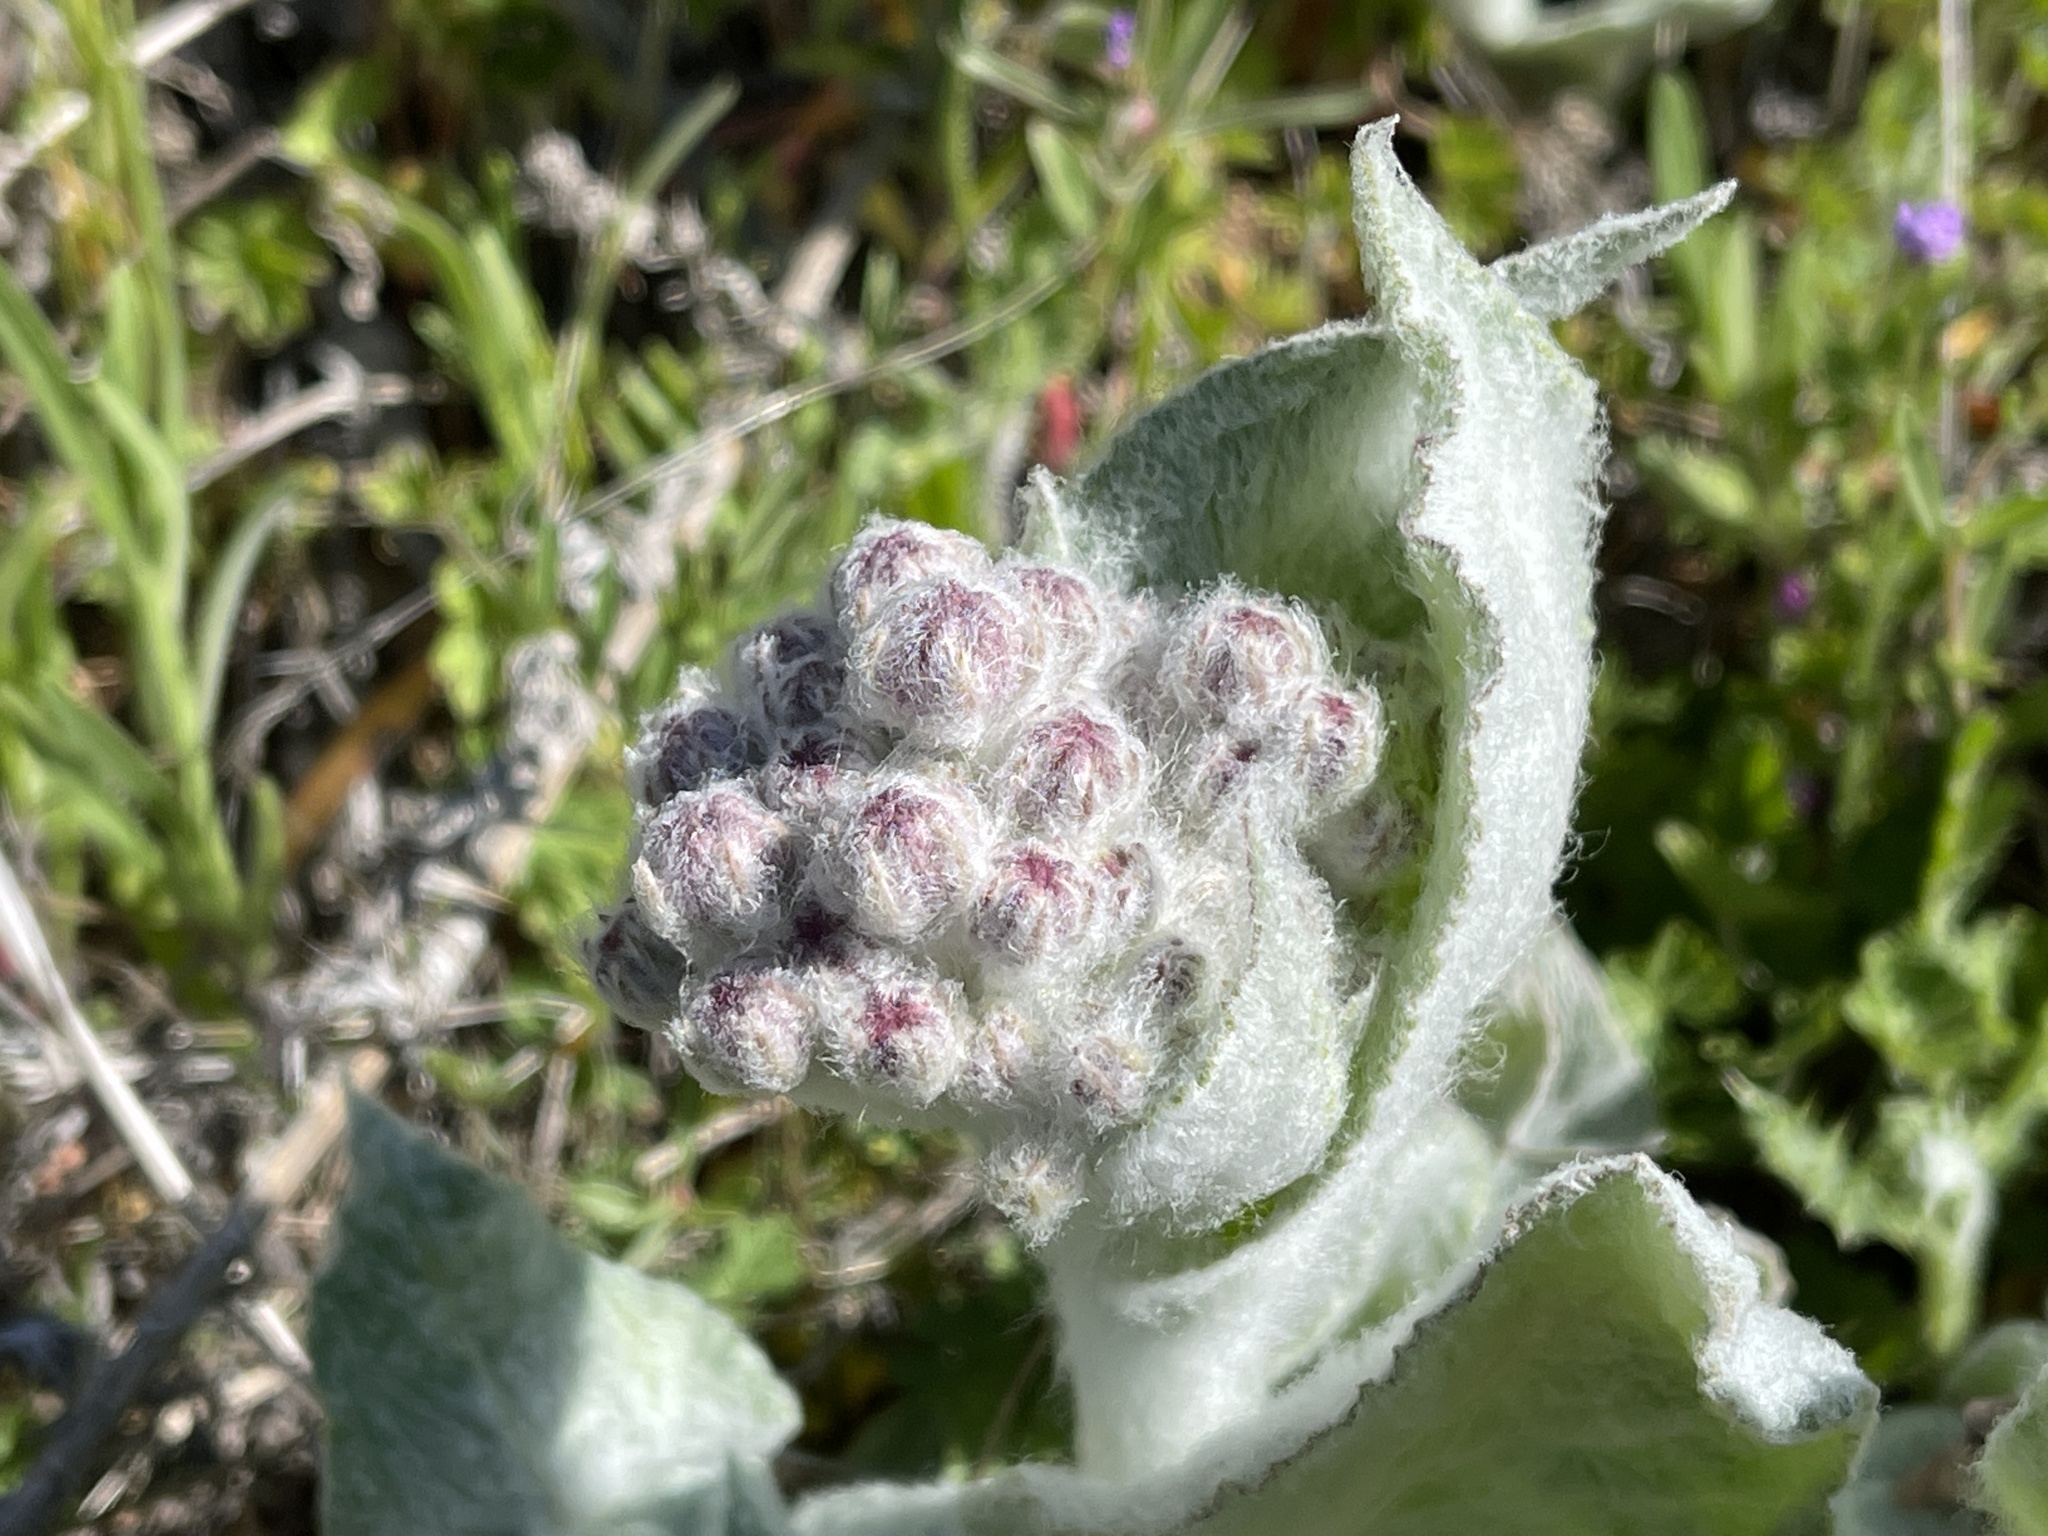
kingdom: Plantae
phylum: Tracheophyta
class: Magnoliopsida
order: Gentianales
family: Apocynaceae
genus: Asclepias
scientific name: Asclepias californica
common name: California milkweed
